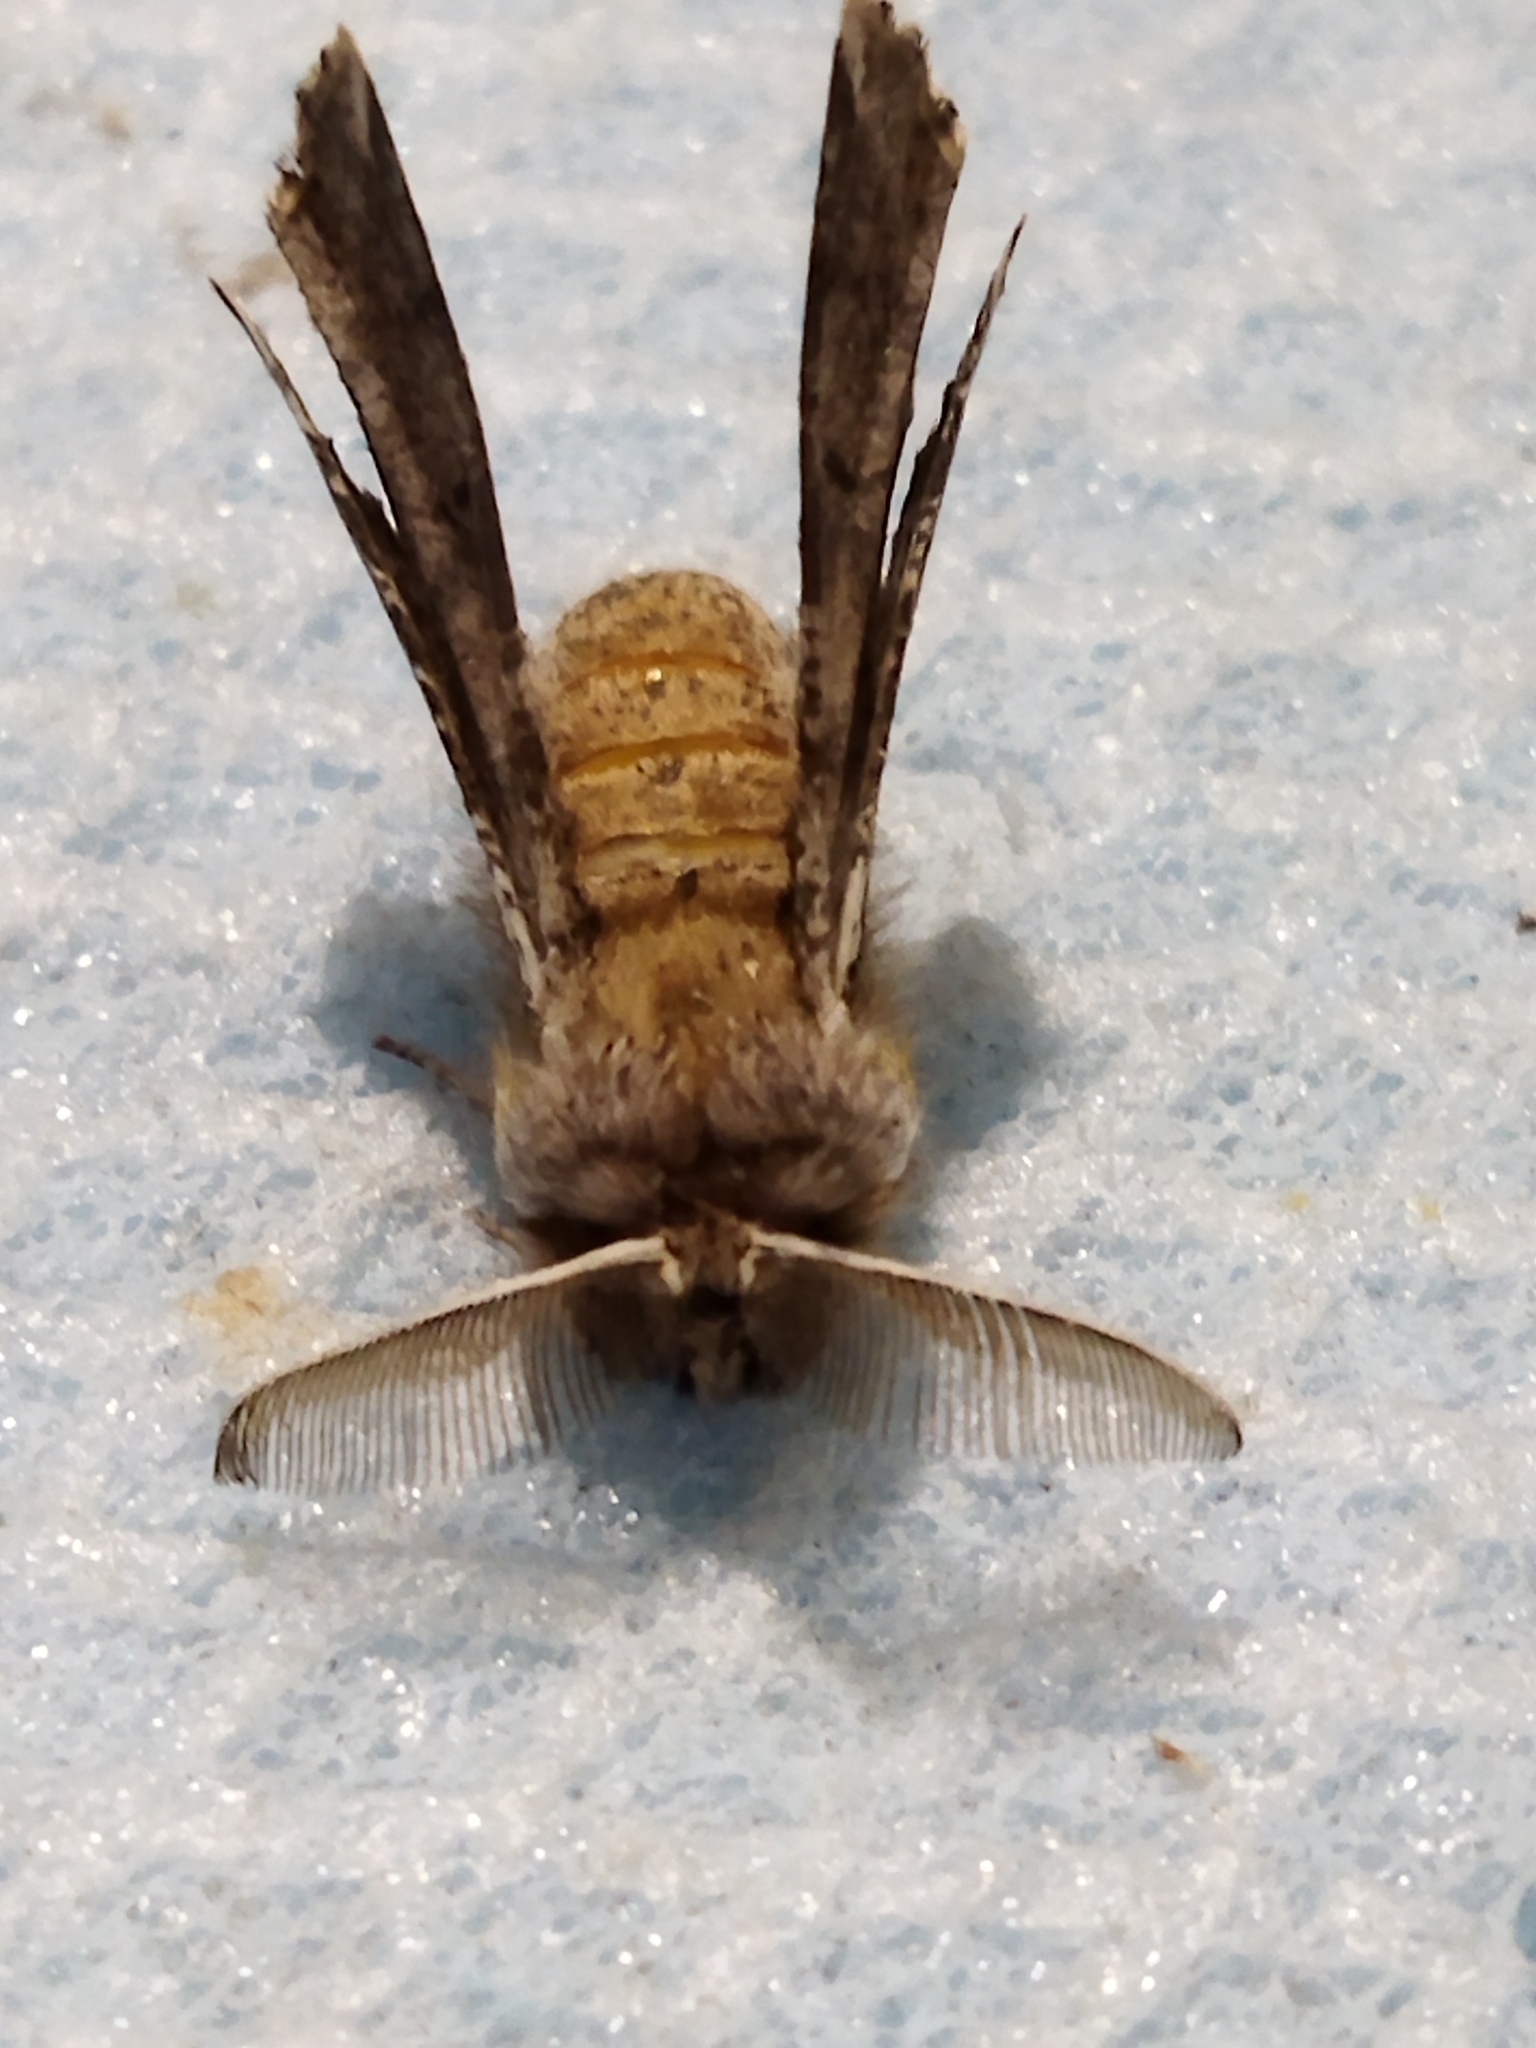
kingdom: Animalia
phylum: Arthropoda
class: Insecta
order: Lepidoptera
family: Geometridae
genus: Apochima
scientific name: Apochima flabellaria
